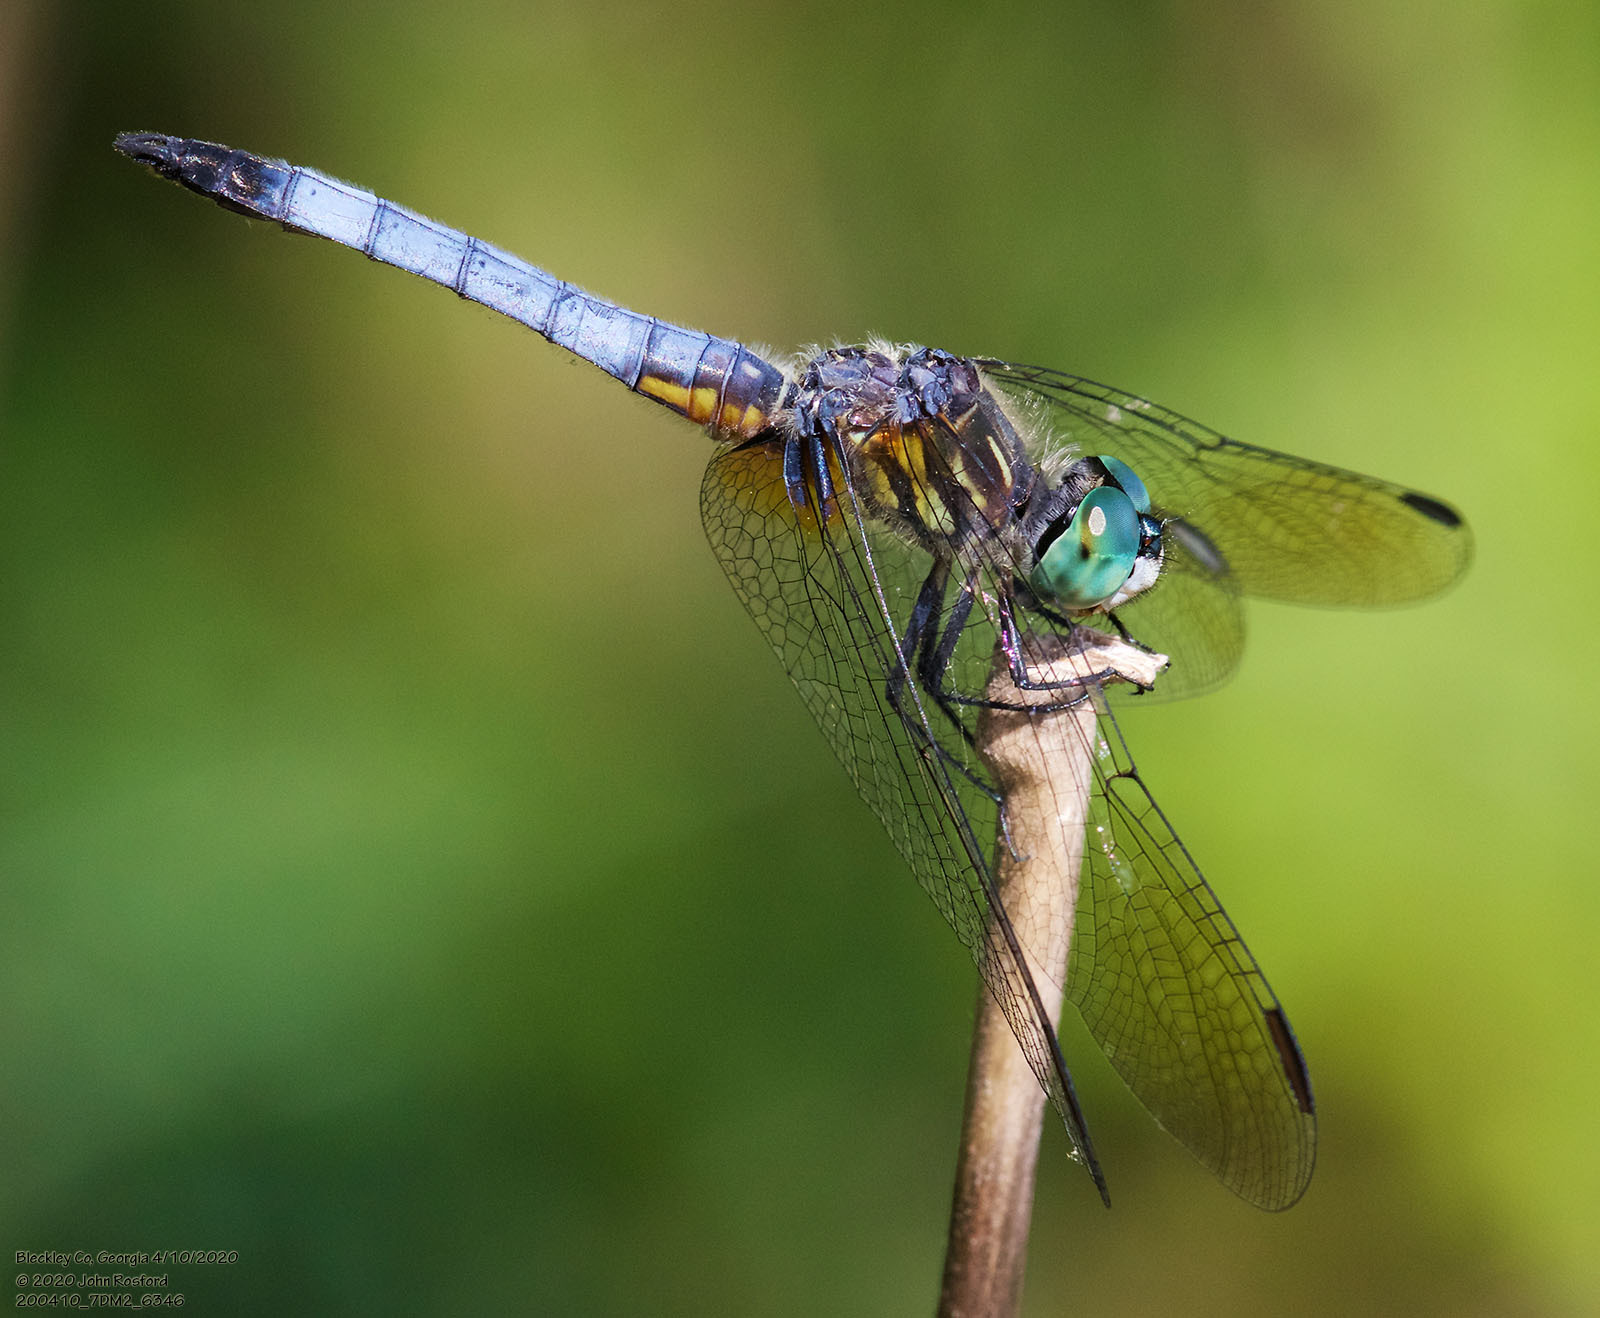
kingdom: Animalia
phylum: Arthropoda
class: Insecta
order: Odonata
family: Libellulidae
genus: Pachydiplax
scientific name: Pachydiplax longipennis
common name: Blue dasher
